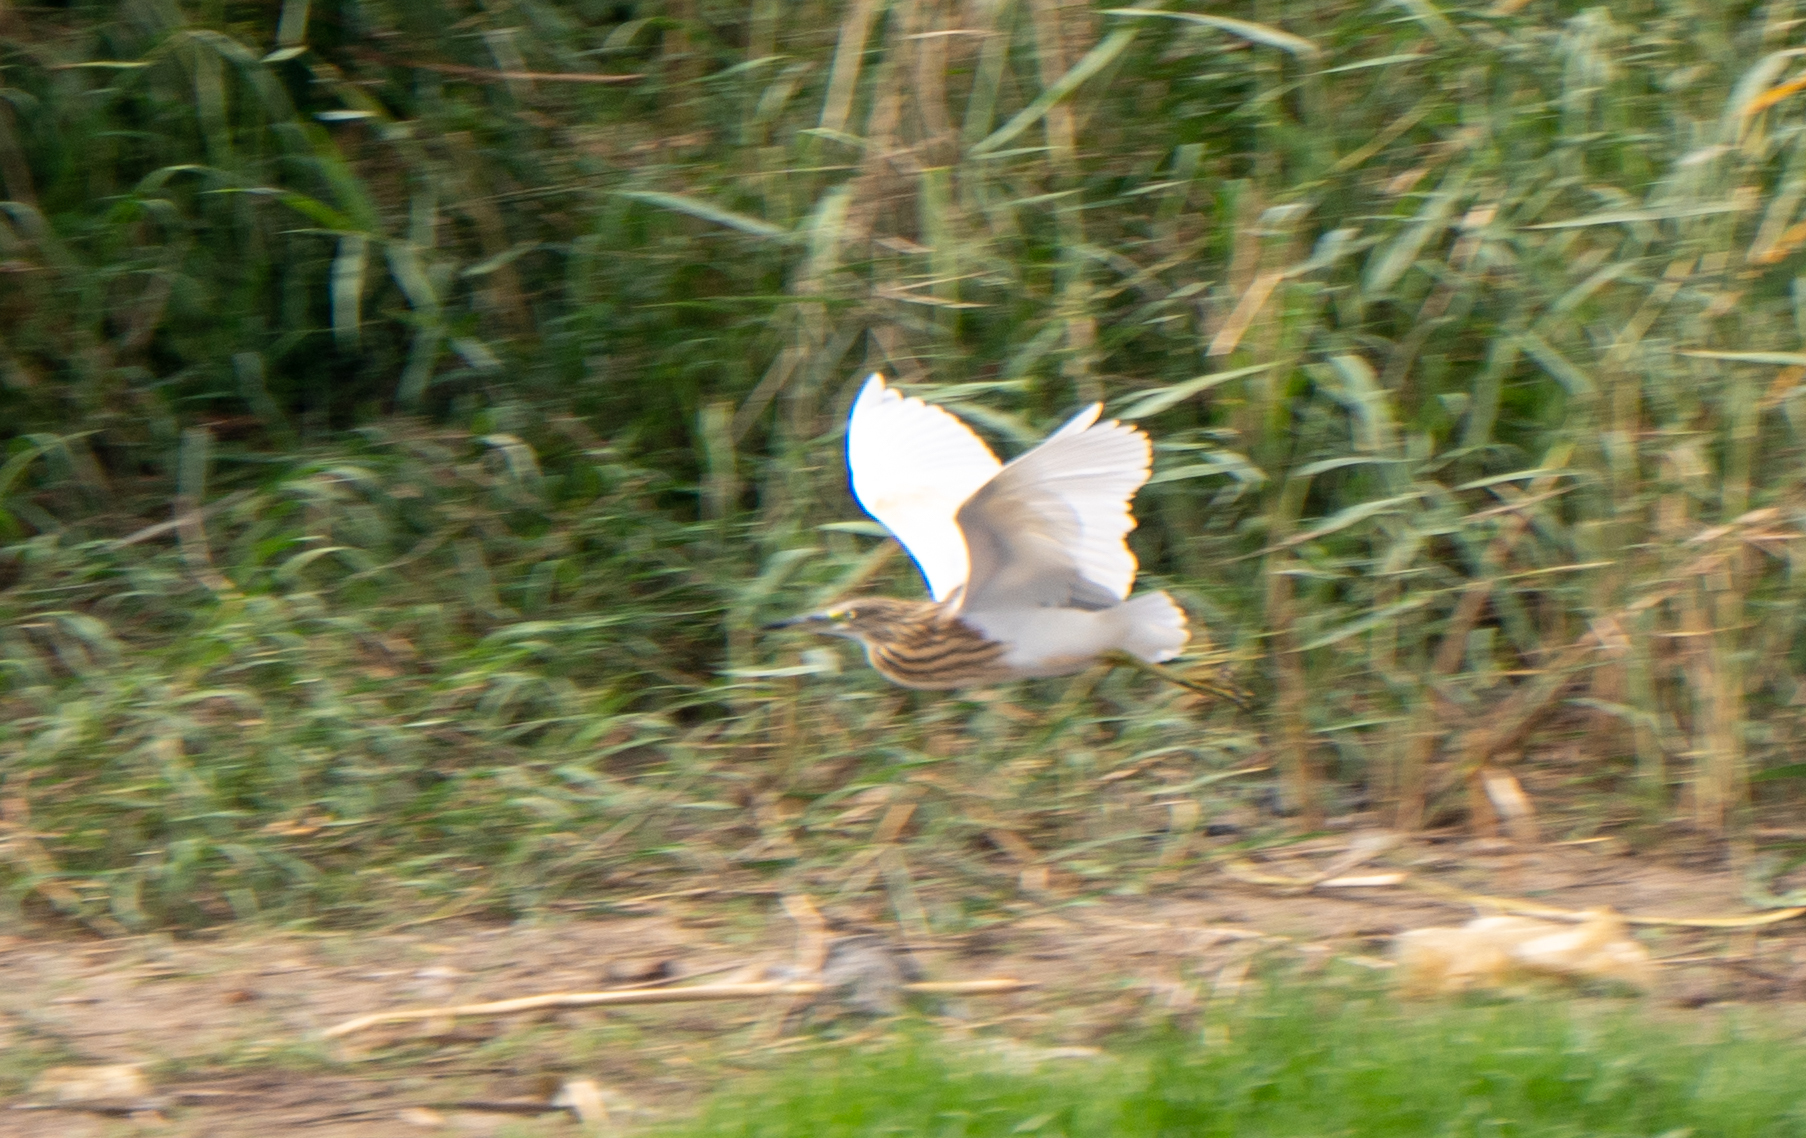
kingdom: Animalia
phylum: Chordata
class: Aves
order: Pelecaniformes
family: Ardeidae
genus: Ardeola
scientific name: Ardeola ralloides
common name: Squacco heron
